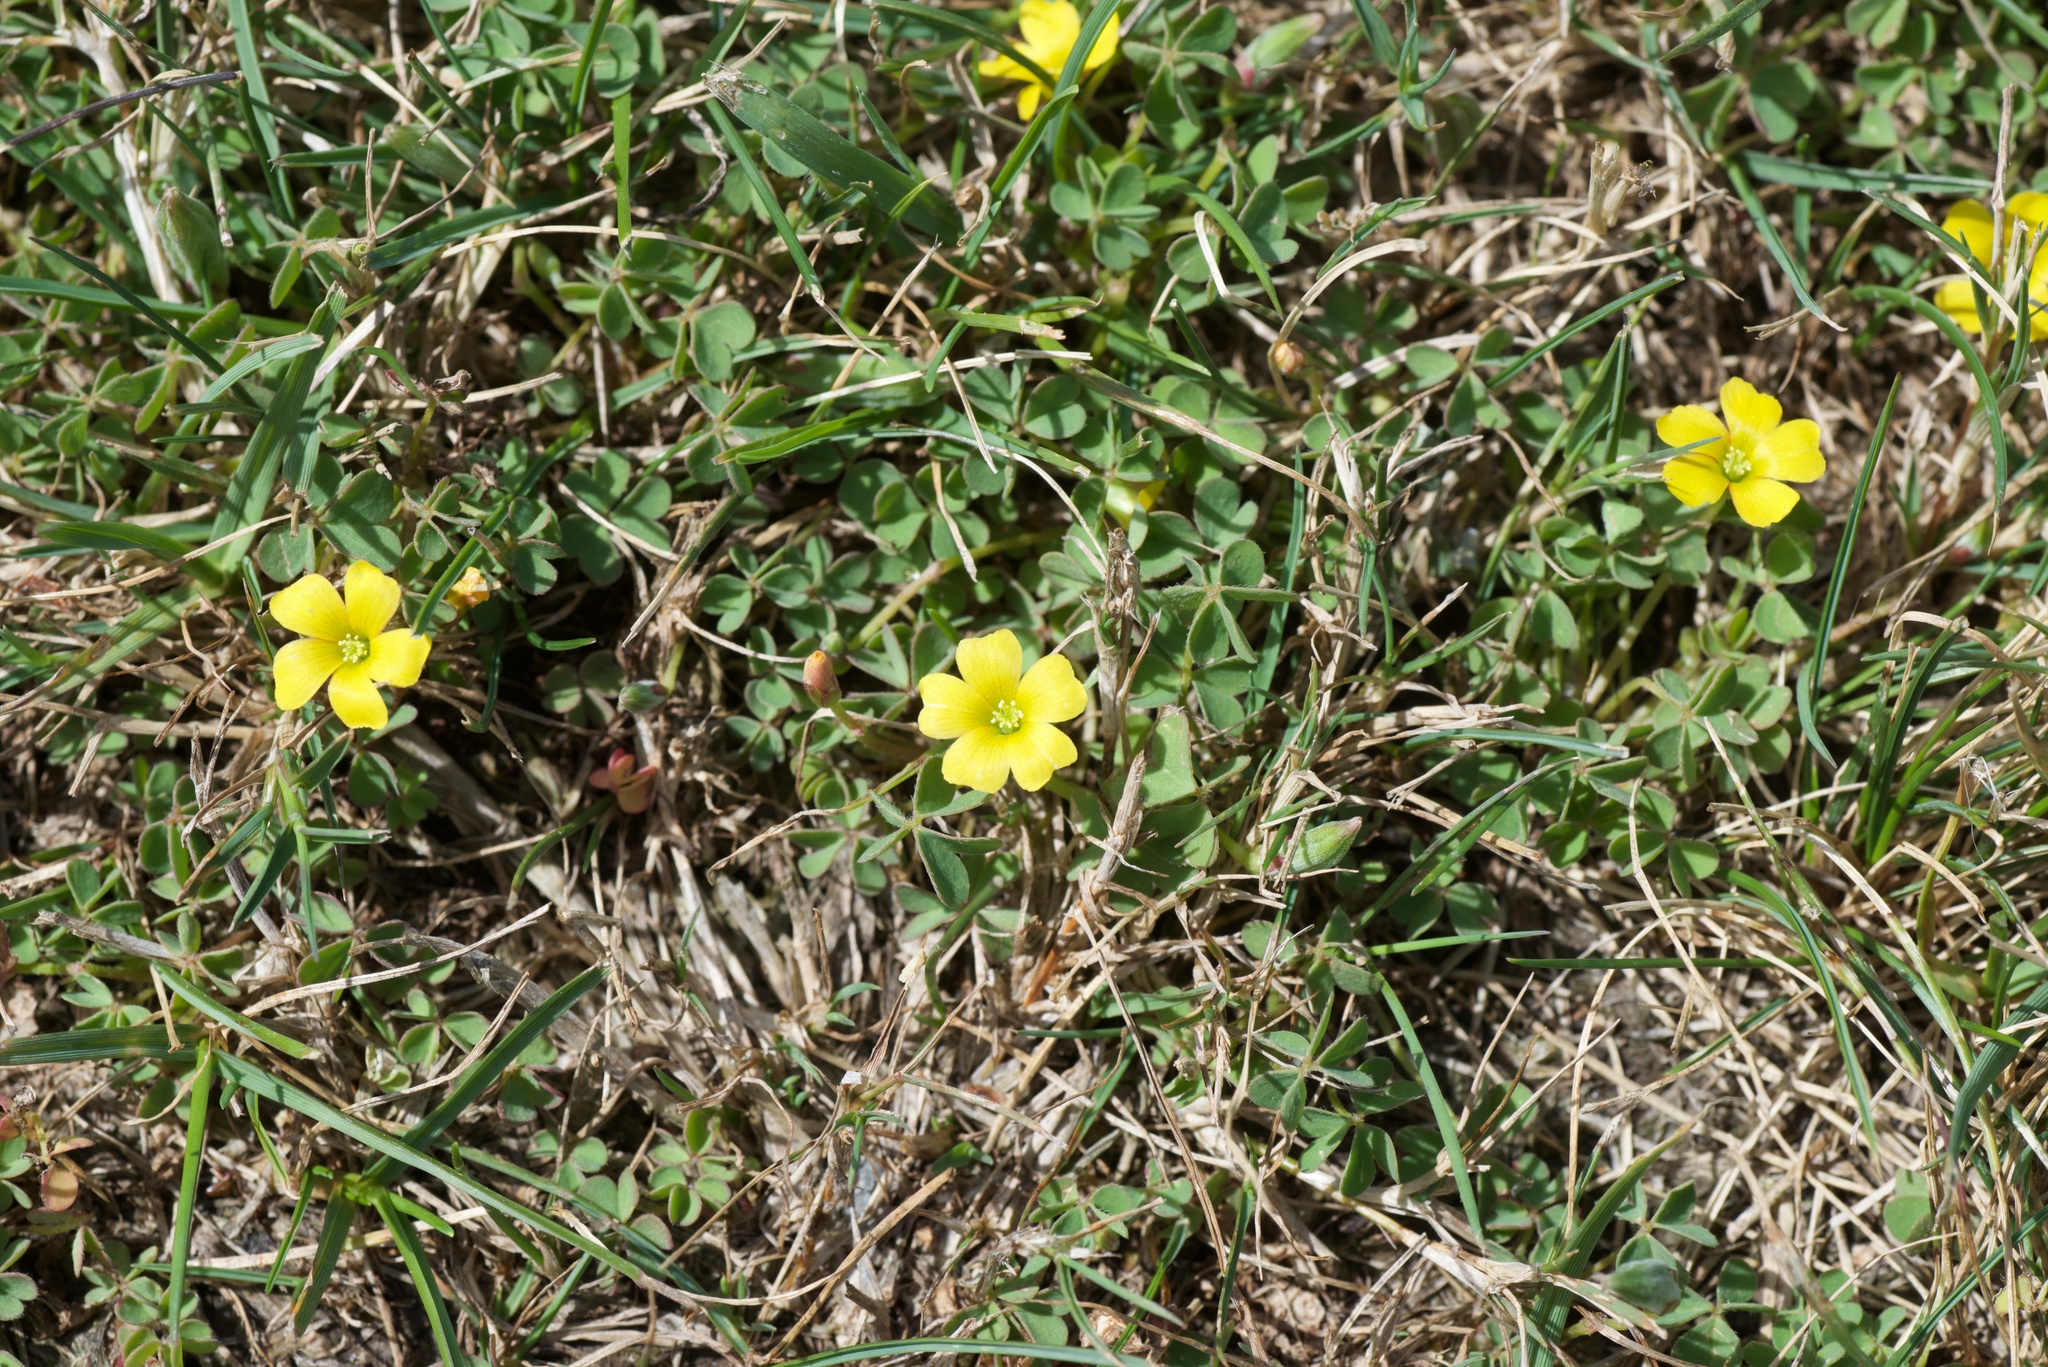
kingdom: Plantae
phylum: Tracheophyta
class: Magnoliopsida
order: Oxalidales
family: Oxalidaceae
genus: Oxalis
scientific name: Oxalis exilis
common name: Least yellow-sorrel
